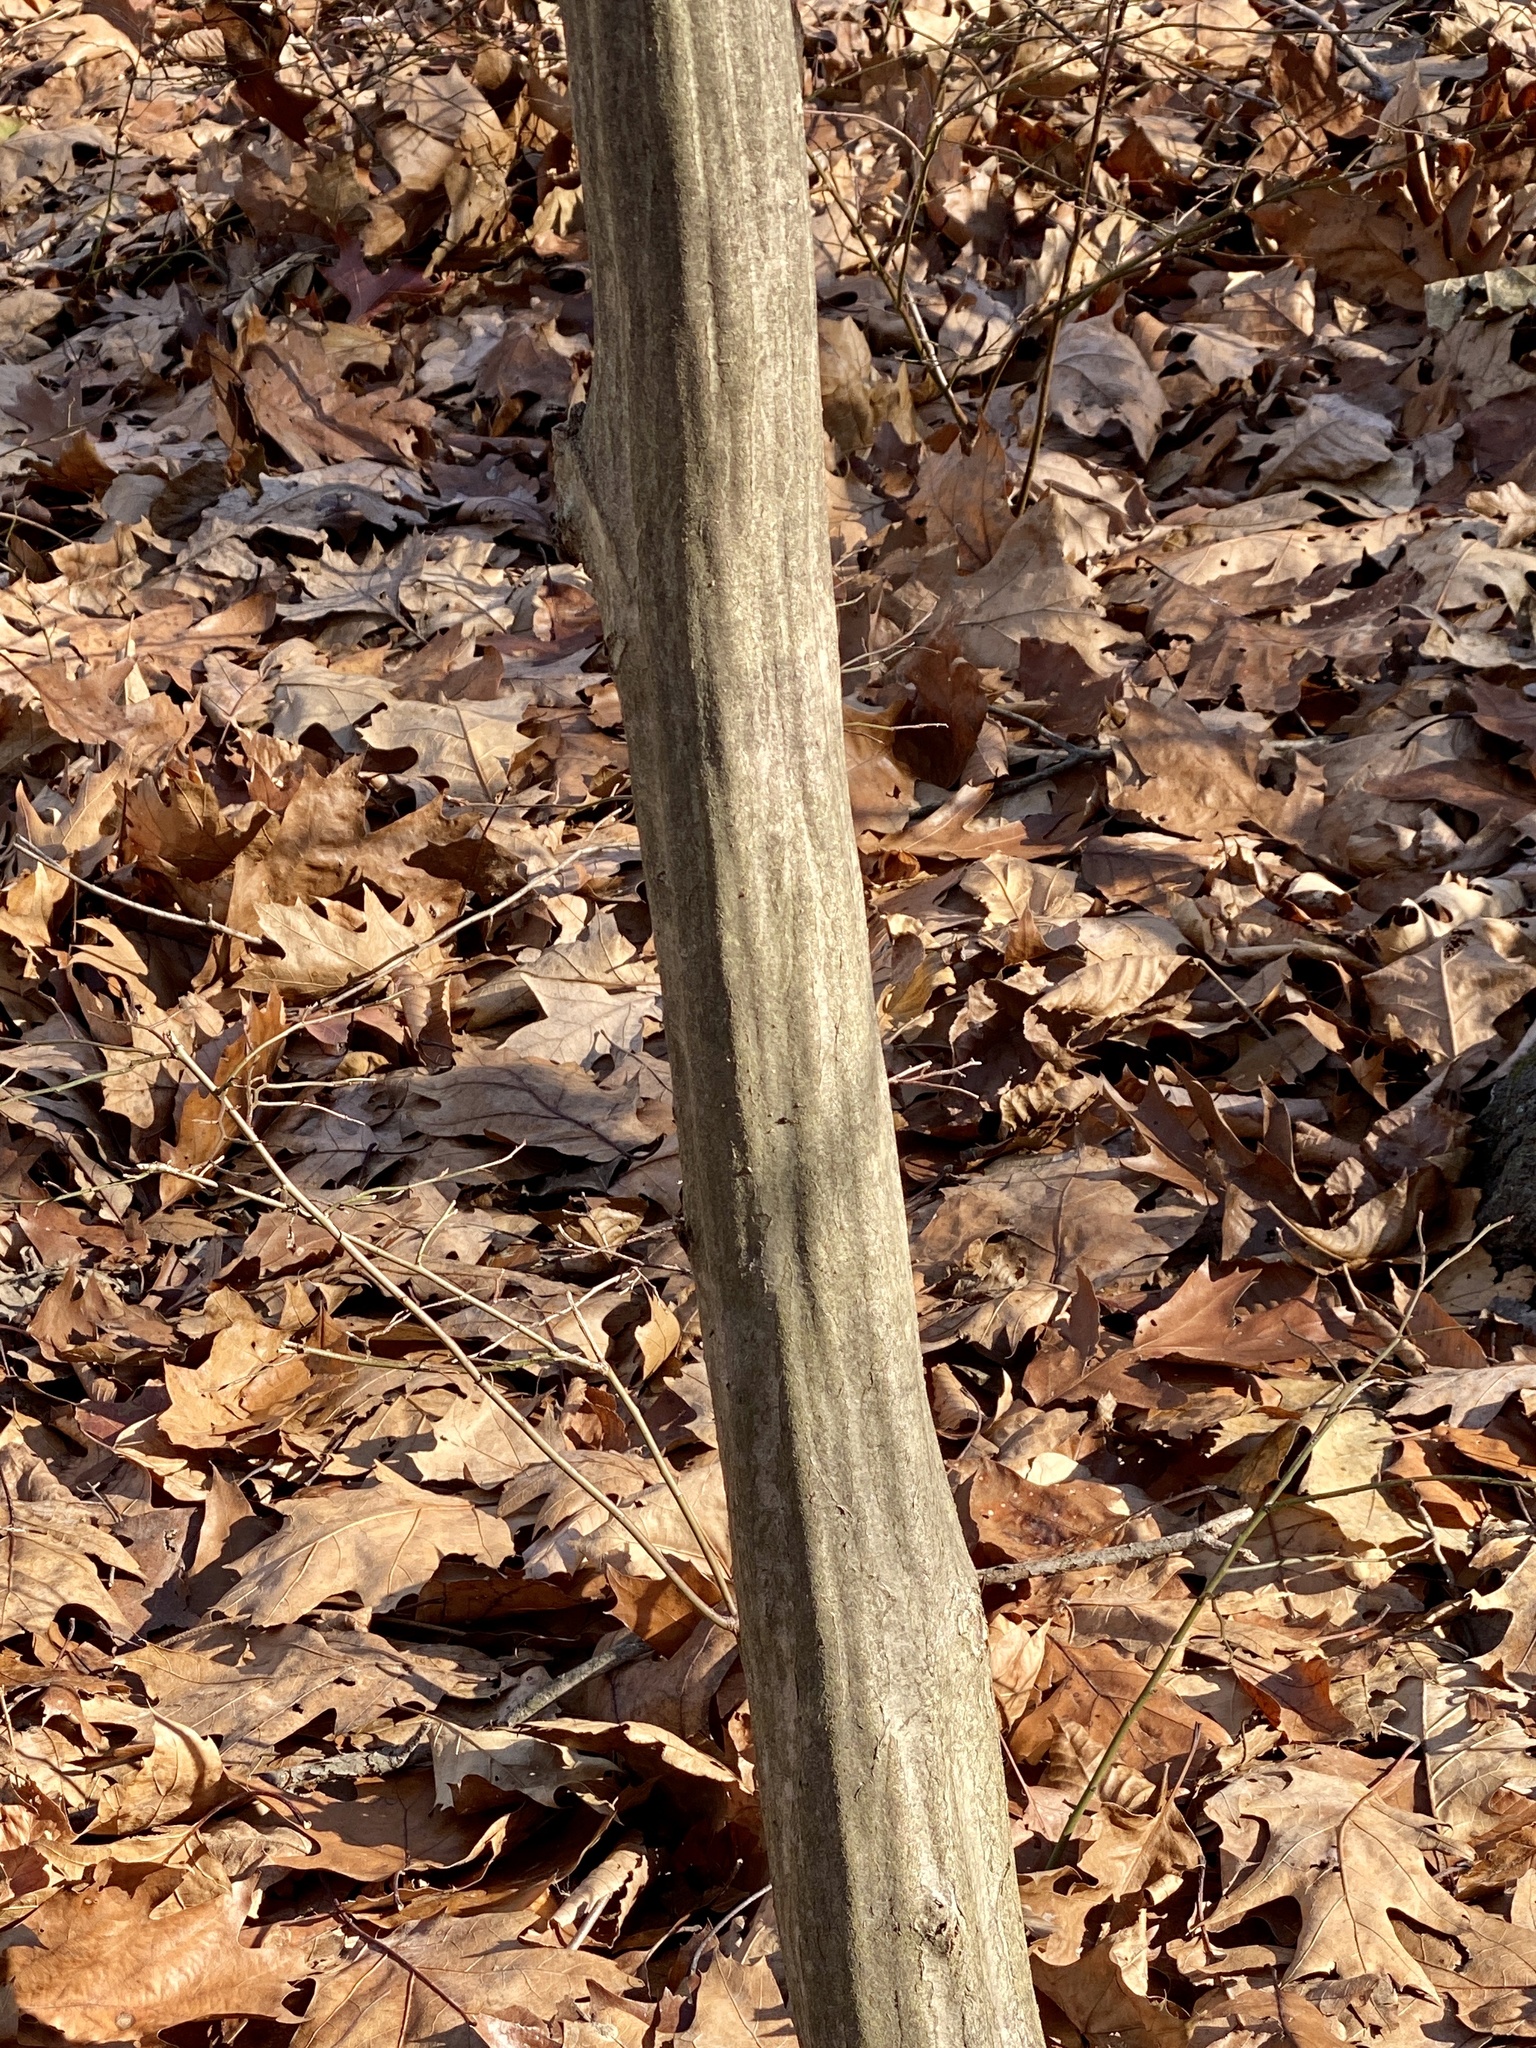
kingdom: Plantae
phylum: Tracheophyta
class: Magnoliopsida
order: Fagales
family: Betulaceae
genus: Carpinus
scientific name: Carpinus caroliniana
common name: American hornbeam
